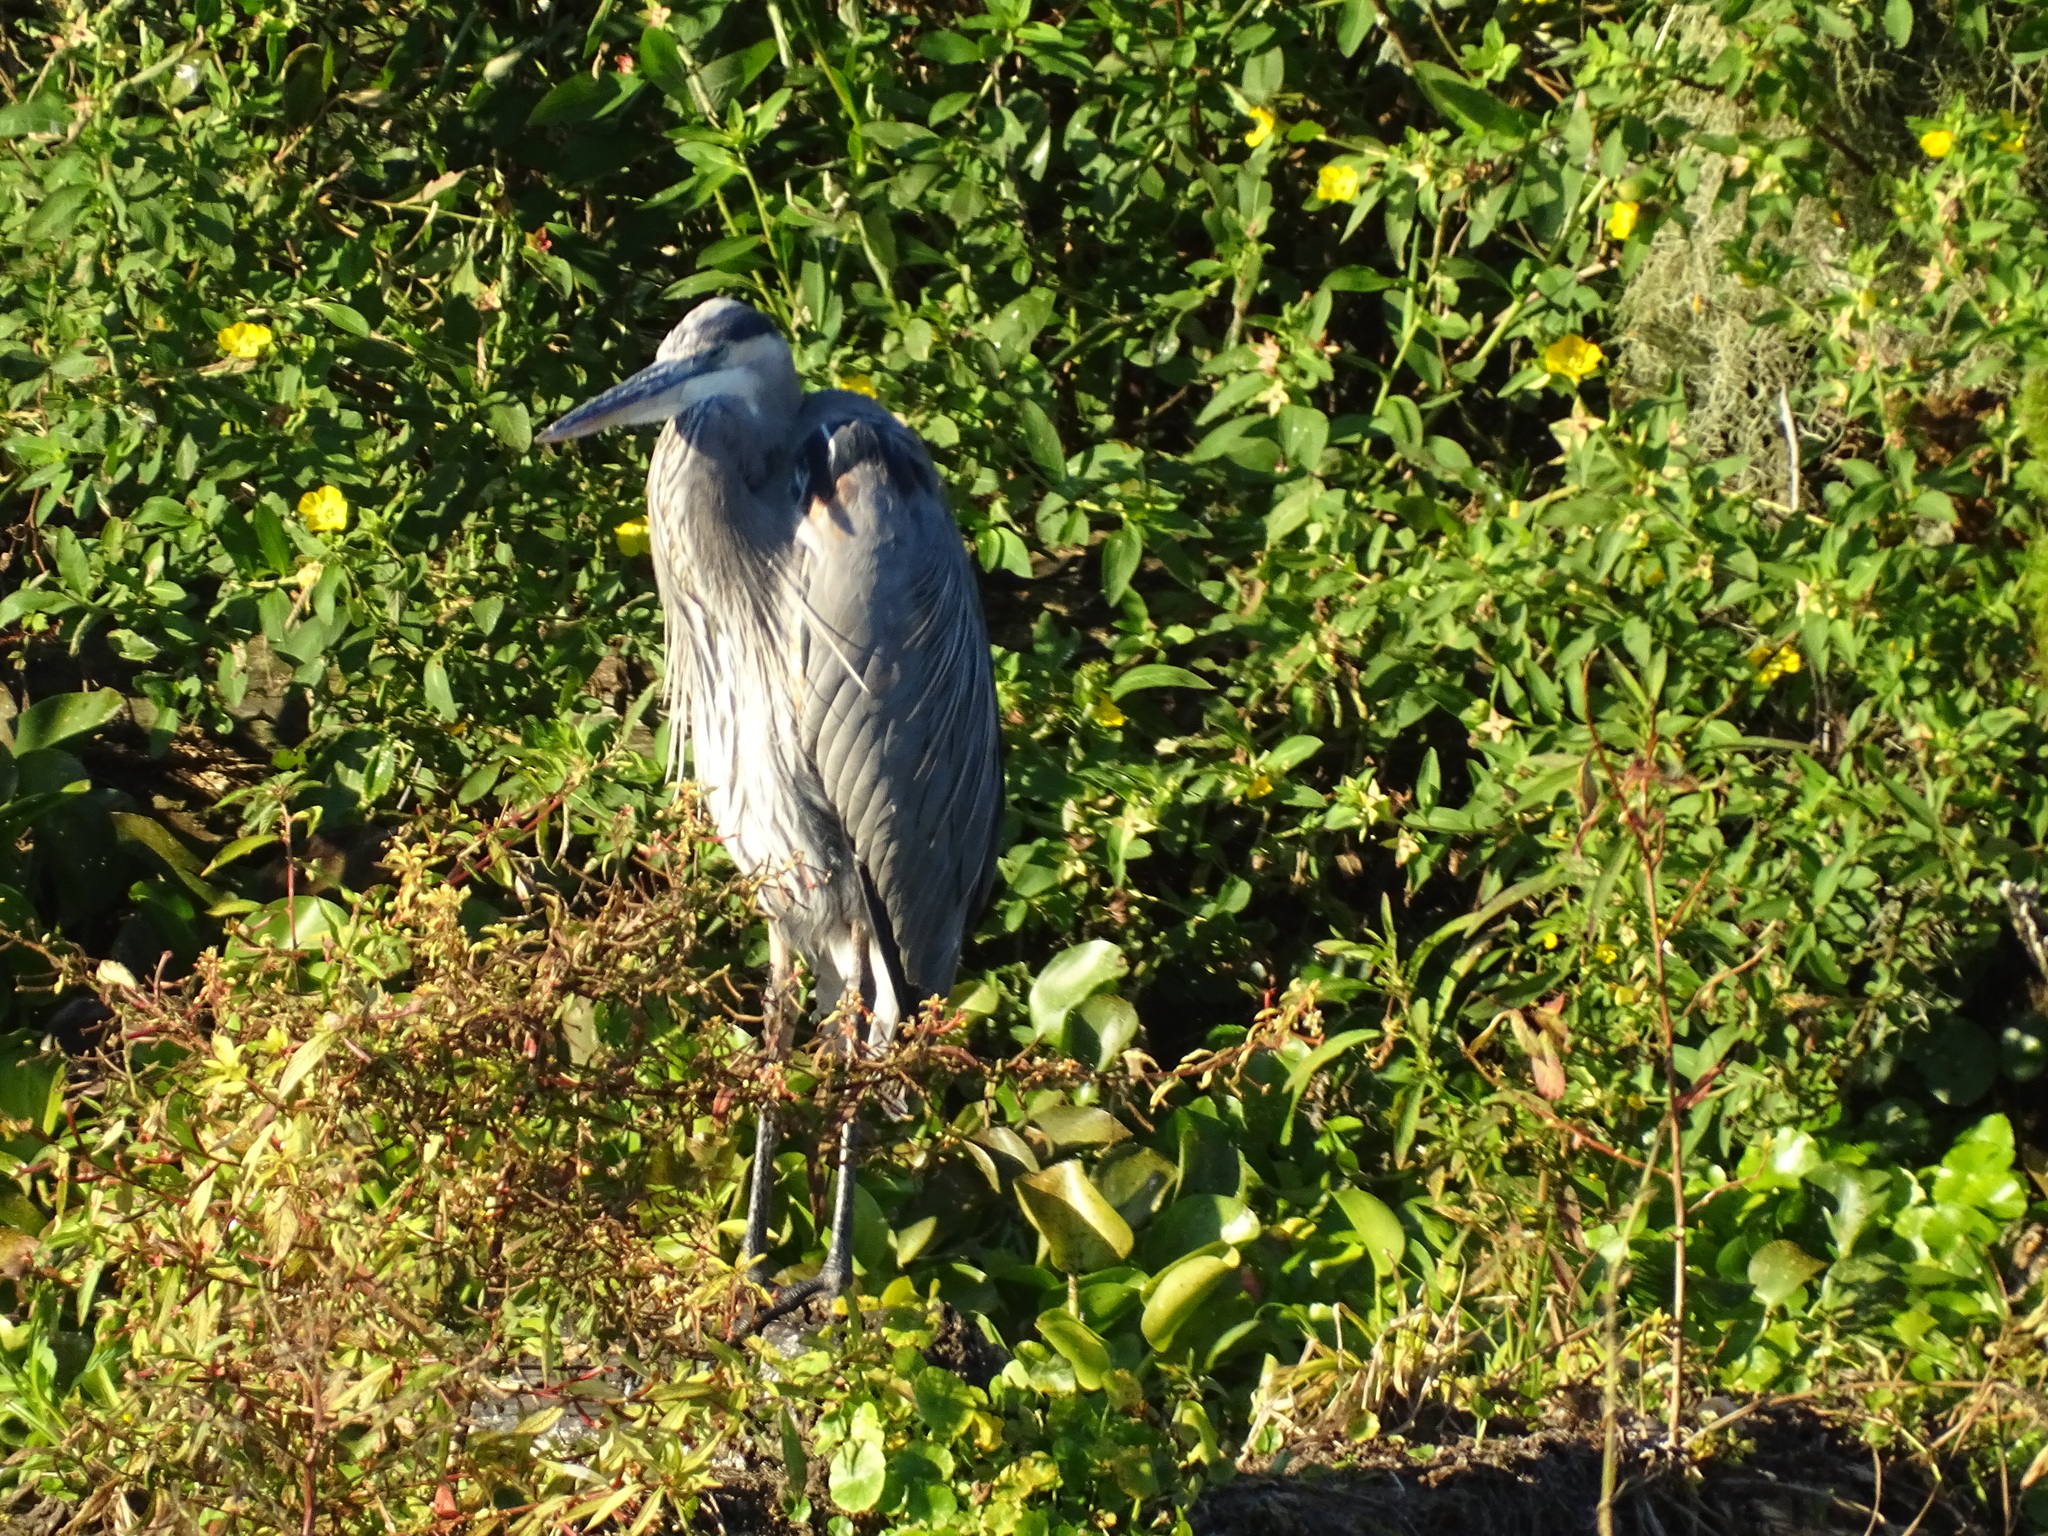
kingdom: Animalia
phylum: Chordata
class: Aves
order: Pelecaniformes
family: Ardeidae
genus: Ardea
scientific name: Ardea herodias
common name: Great blue heron
